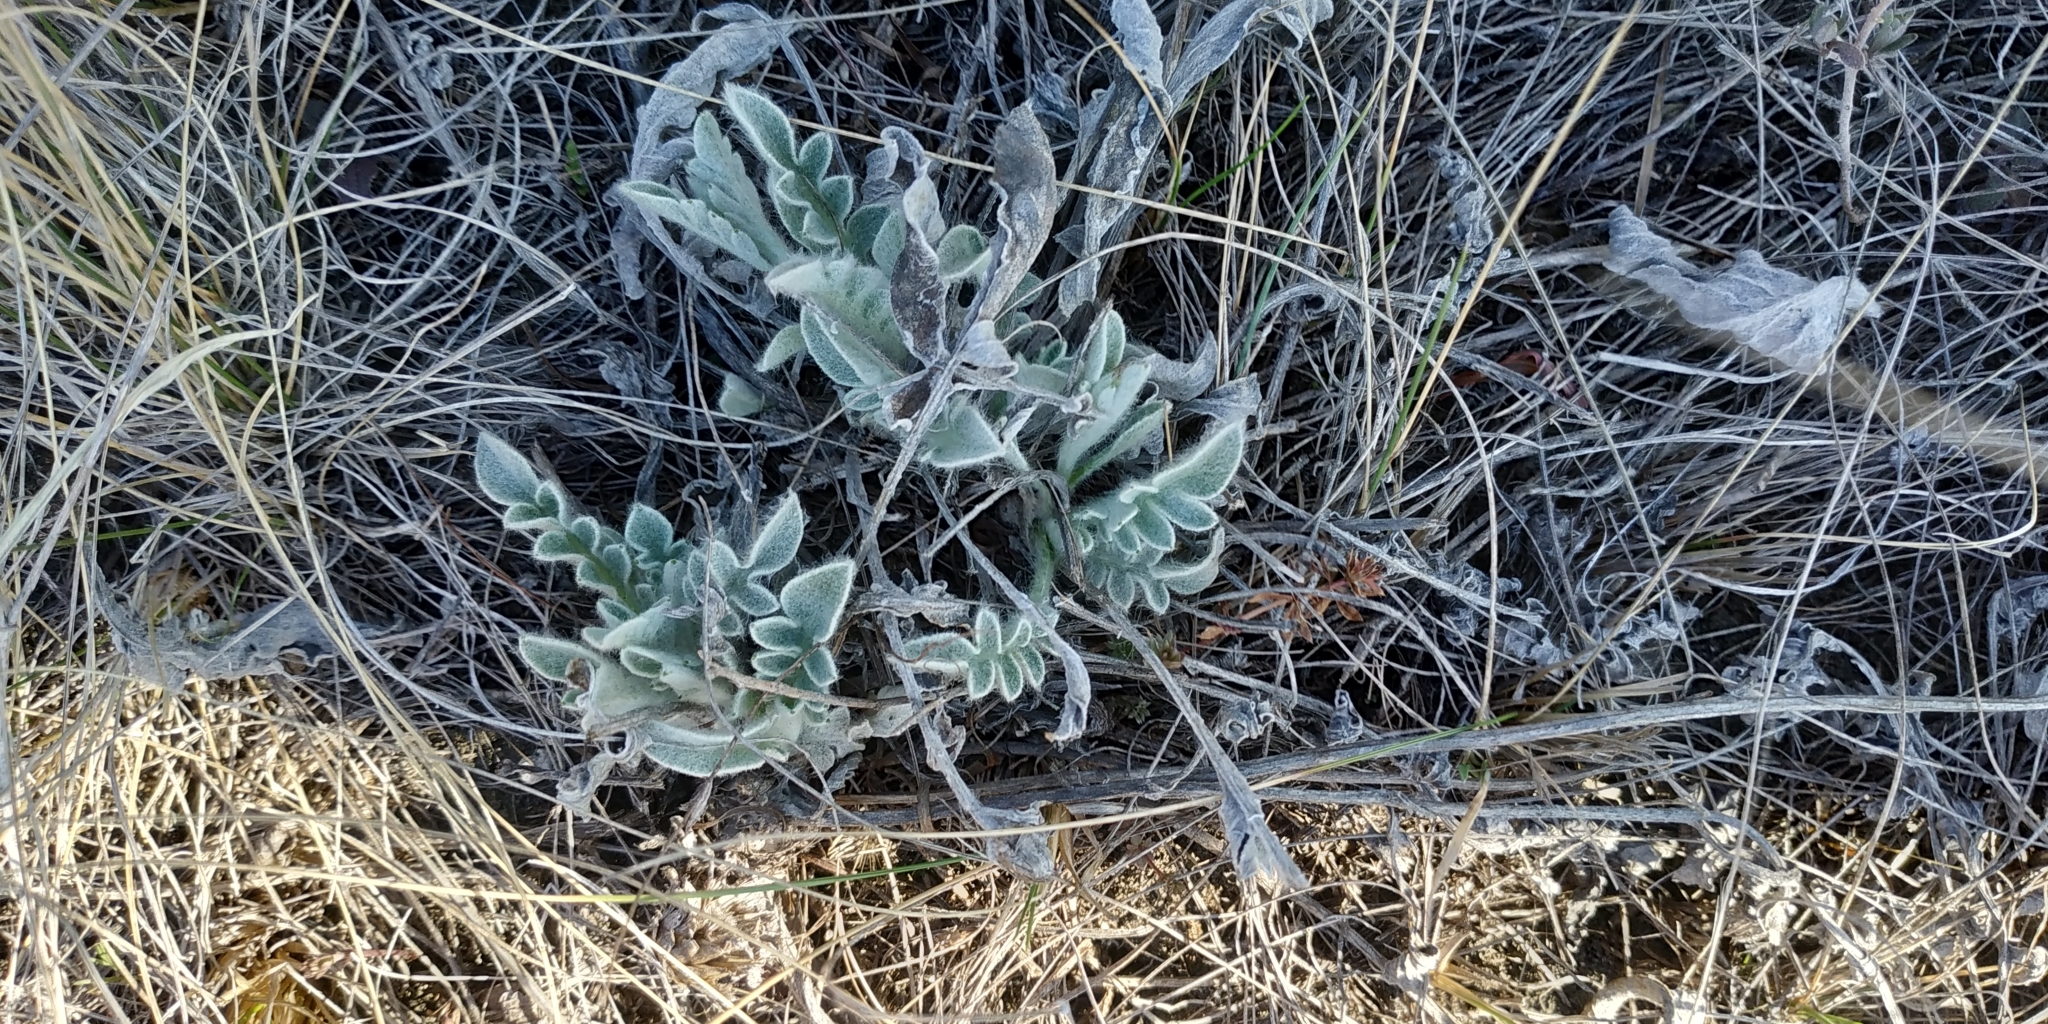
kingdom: Plantae
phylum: Tracheophyta
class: Magnoliopsida
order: Asterales
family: Asteraceae
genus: Psephellus
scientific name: Psephellus turgaicus
